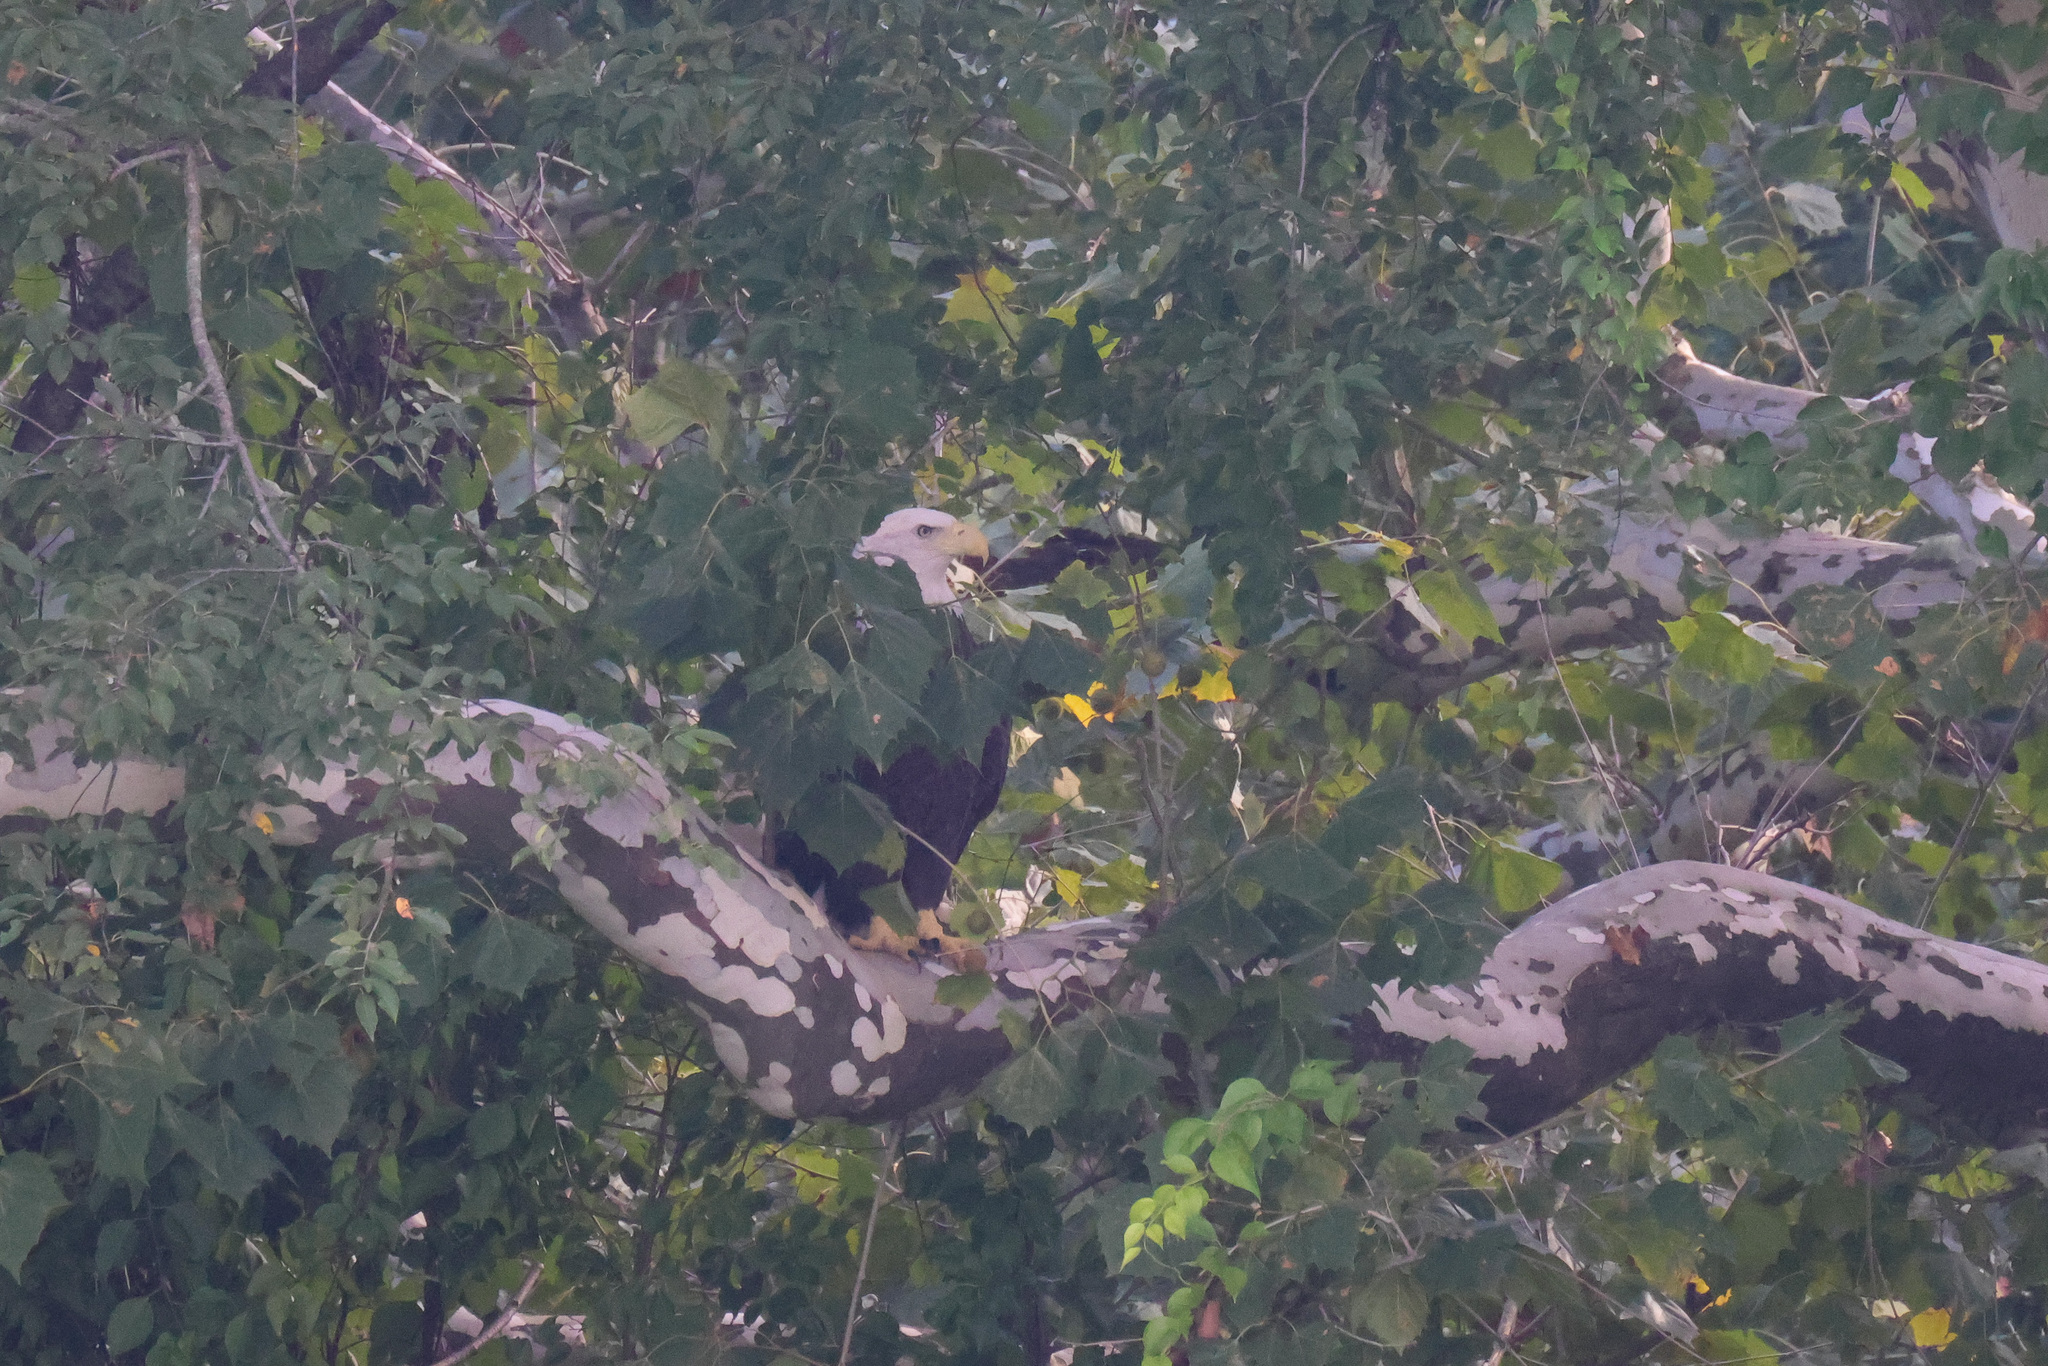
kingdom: Animalia
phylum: Chordata
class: Aves
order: Accipitriformes
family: Accipitridae
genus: Haliaeetus
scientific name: Haliaeetus leucocephalus
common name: Bald eagle
